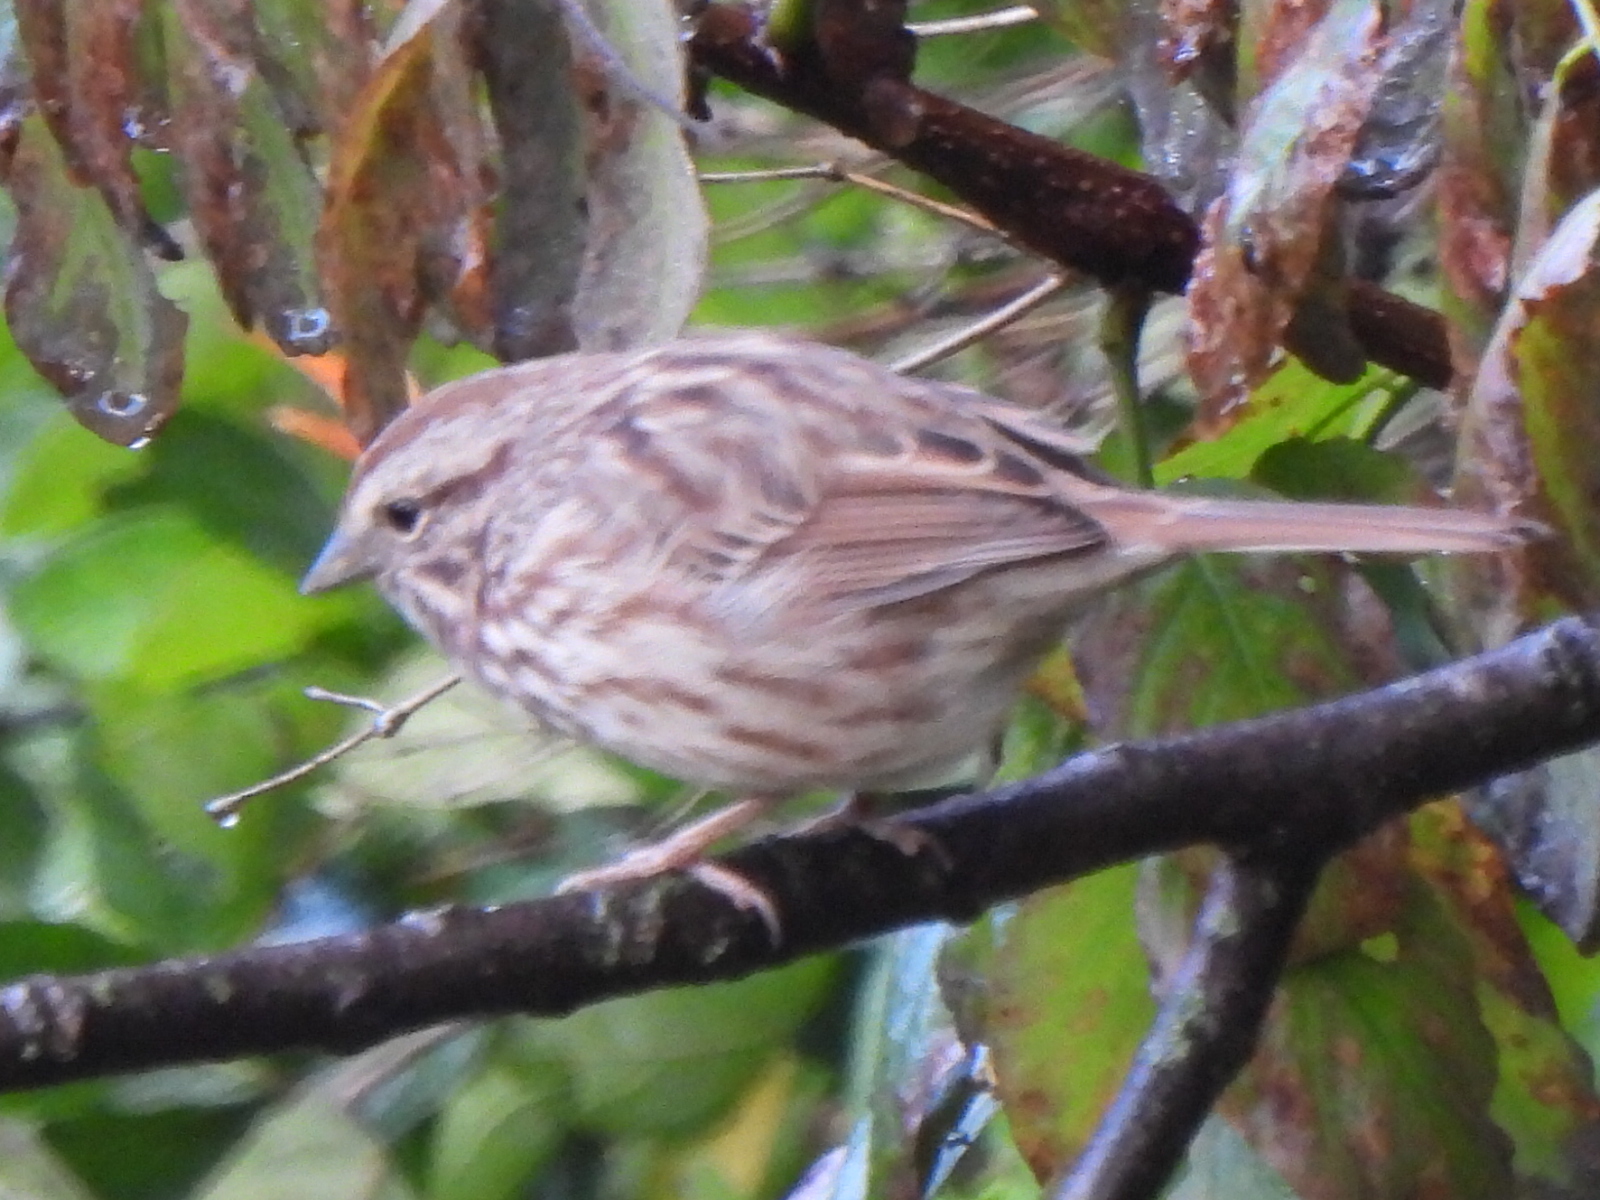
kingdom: Animalia
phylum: Chordata
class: Aves
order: Passeriformes
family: Passerellidae
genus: Melospiza
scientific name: Melospiza melodia
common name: Song sparrow
